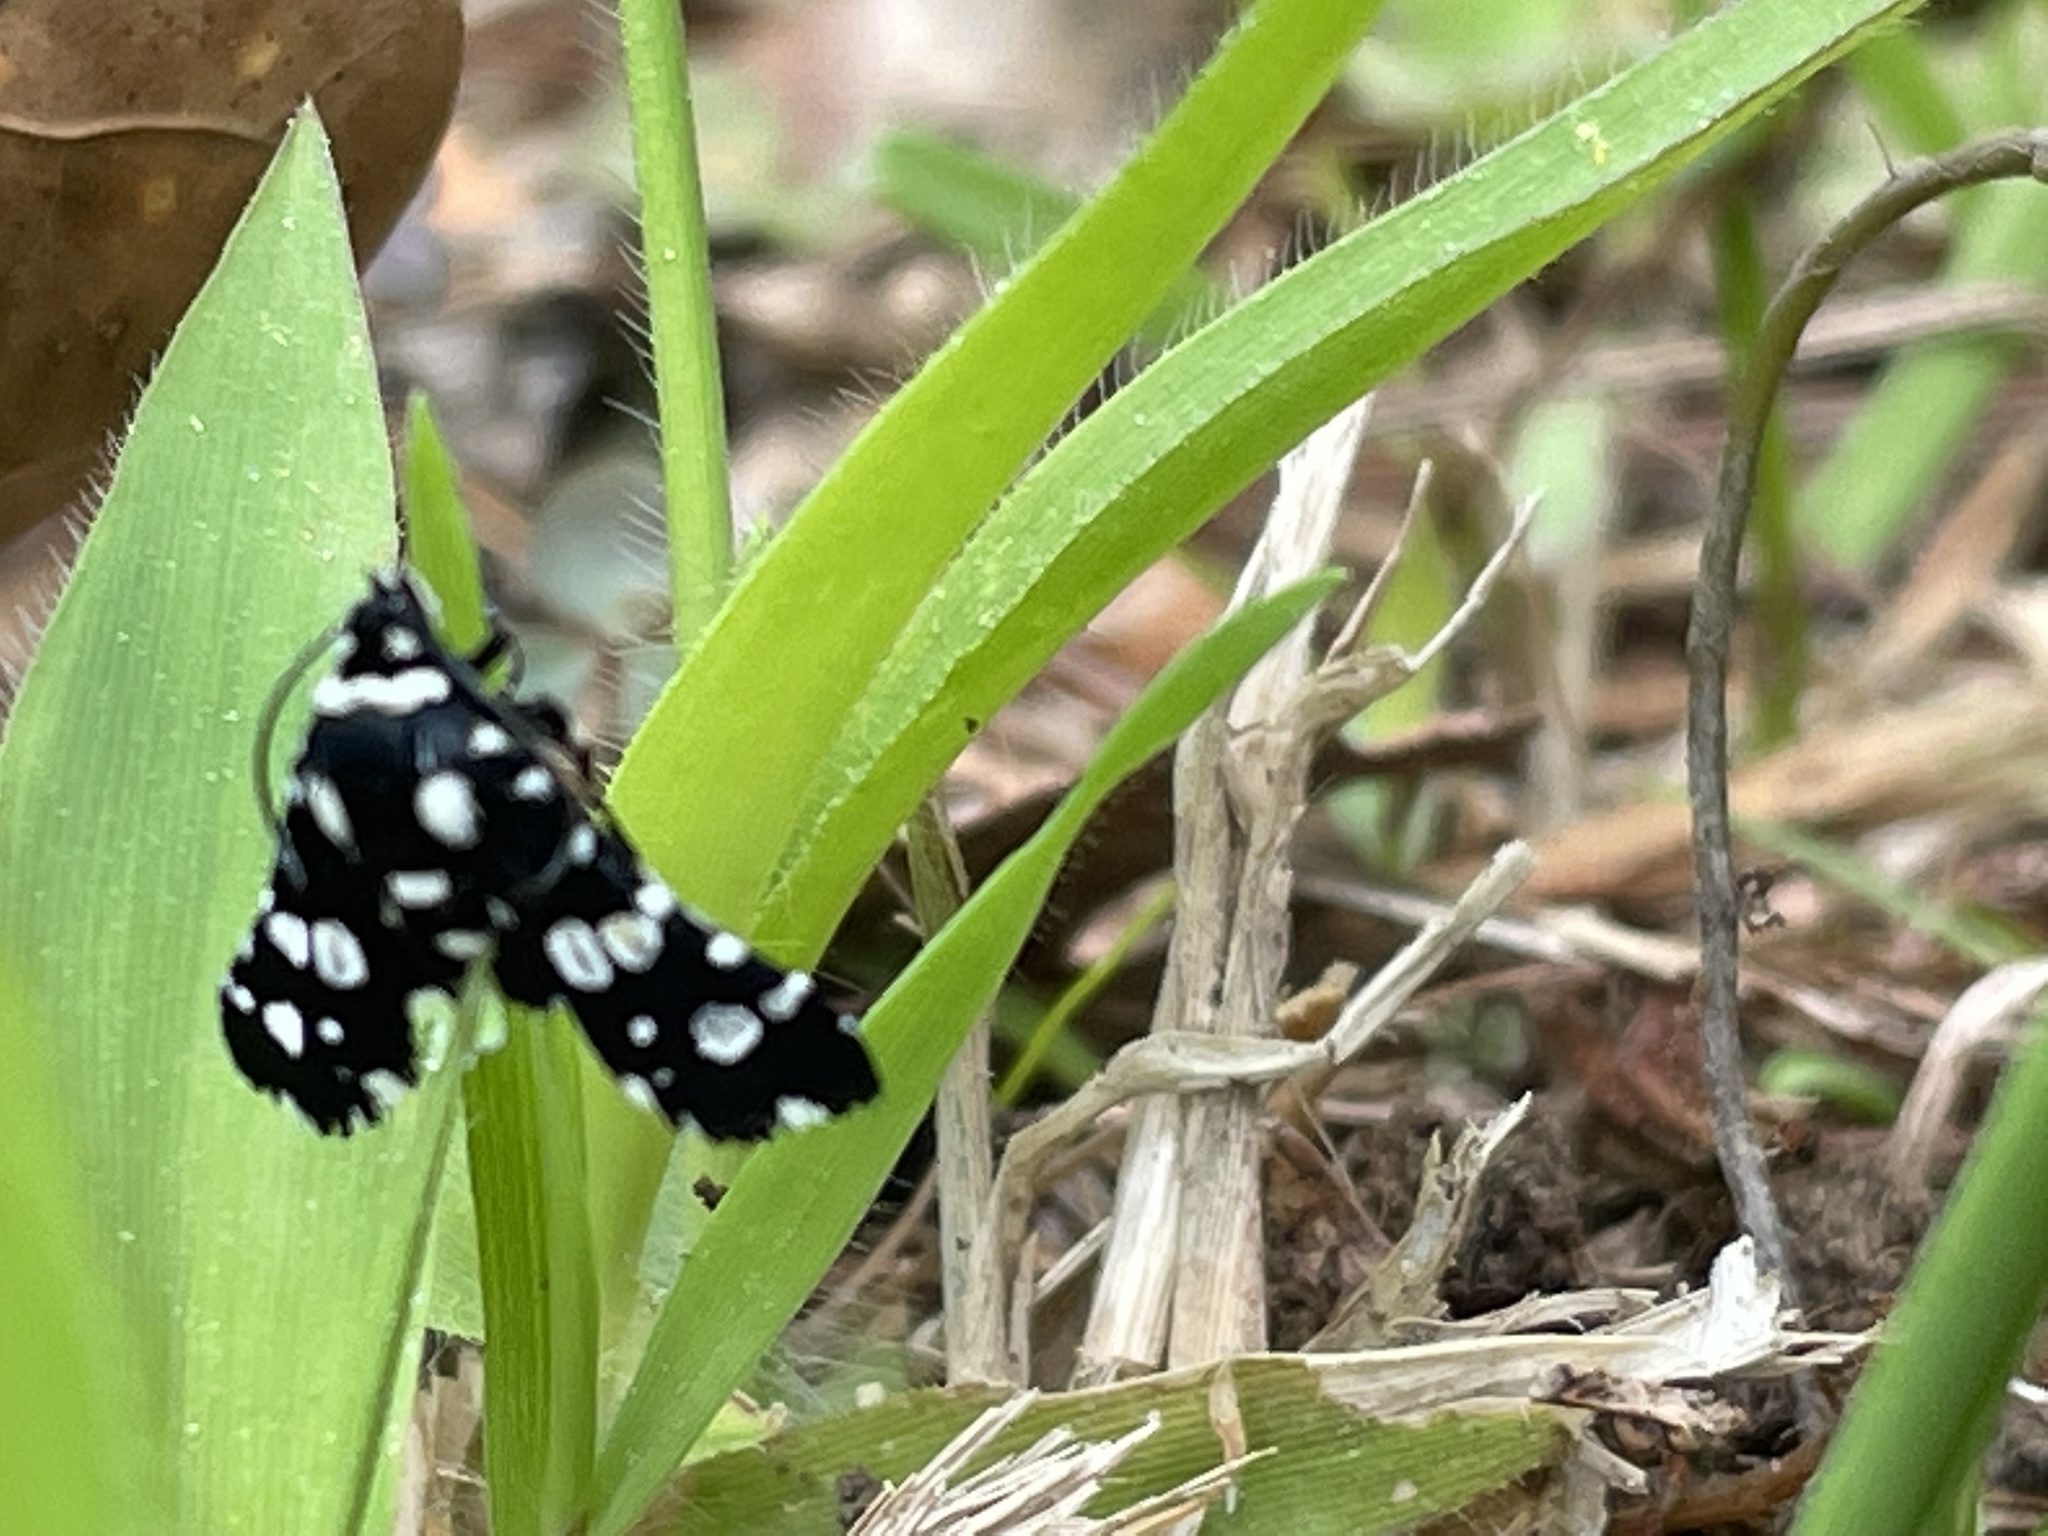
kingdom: Animalia
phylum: Arthropoda
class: Insecta
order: Lepidoptera
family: Thyrididae
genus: Pseudothyris
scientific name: Pseudothyris sepulchralis
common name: Mournful thyris moth
